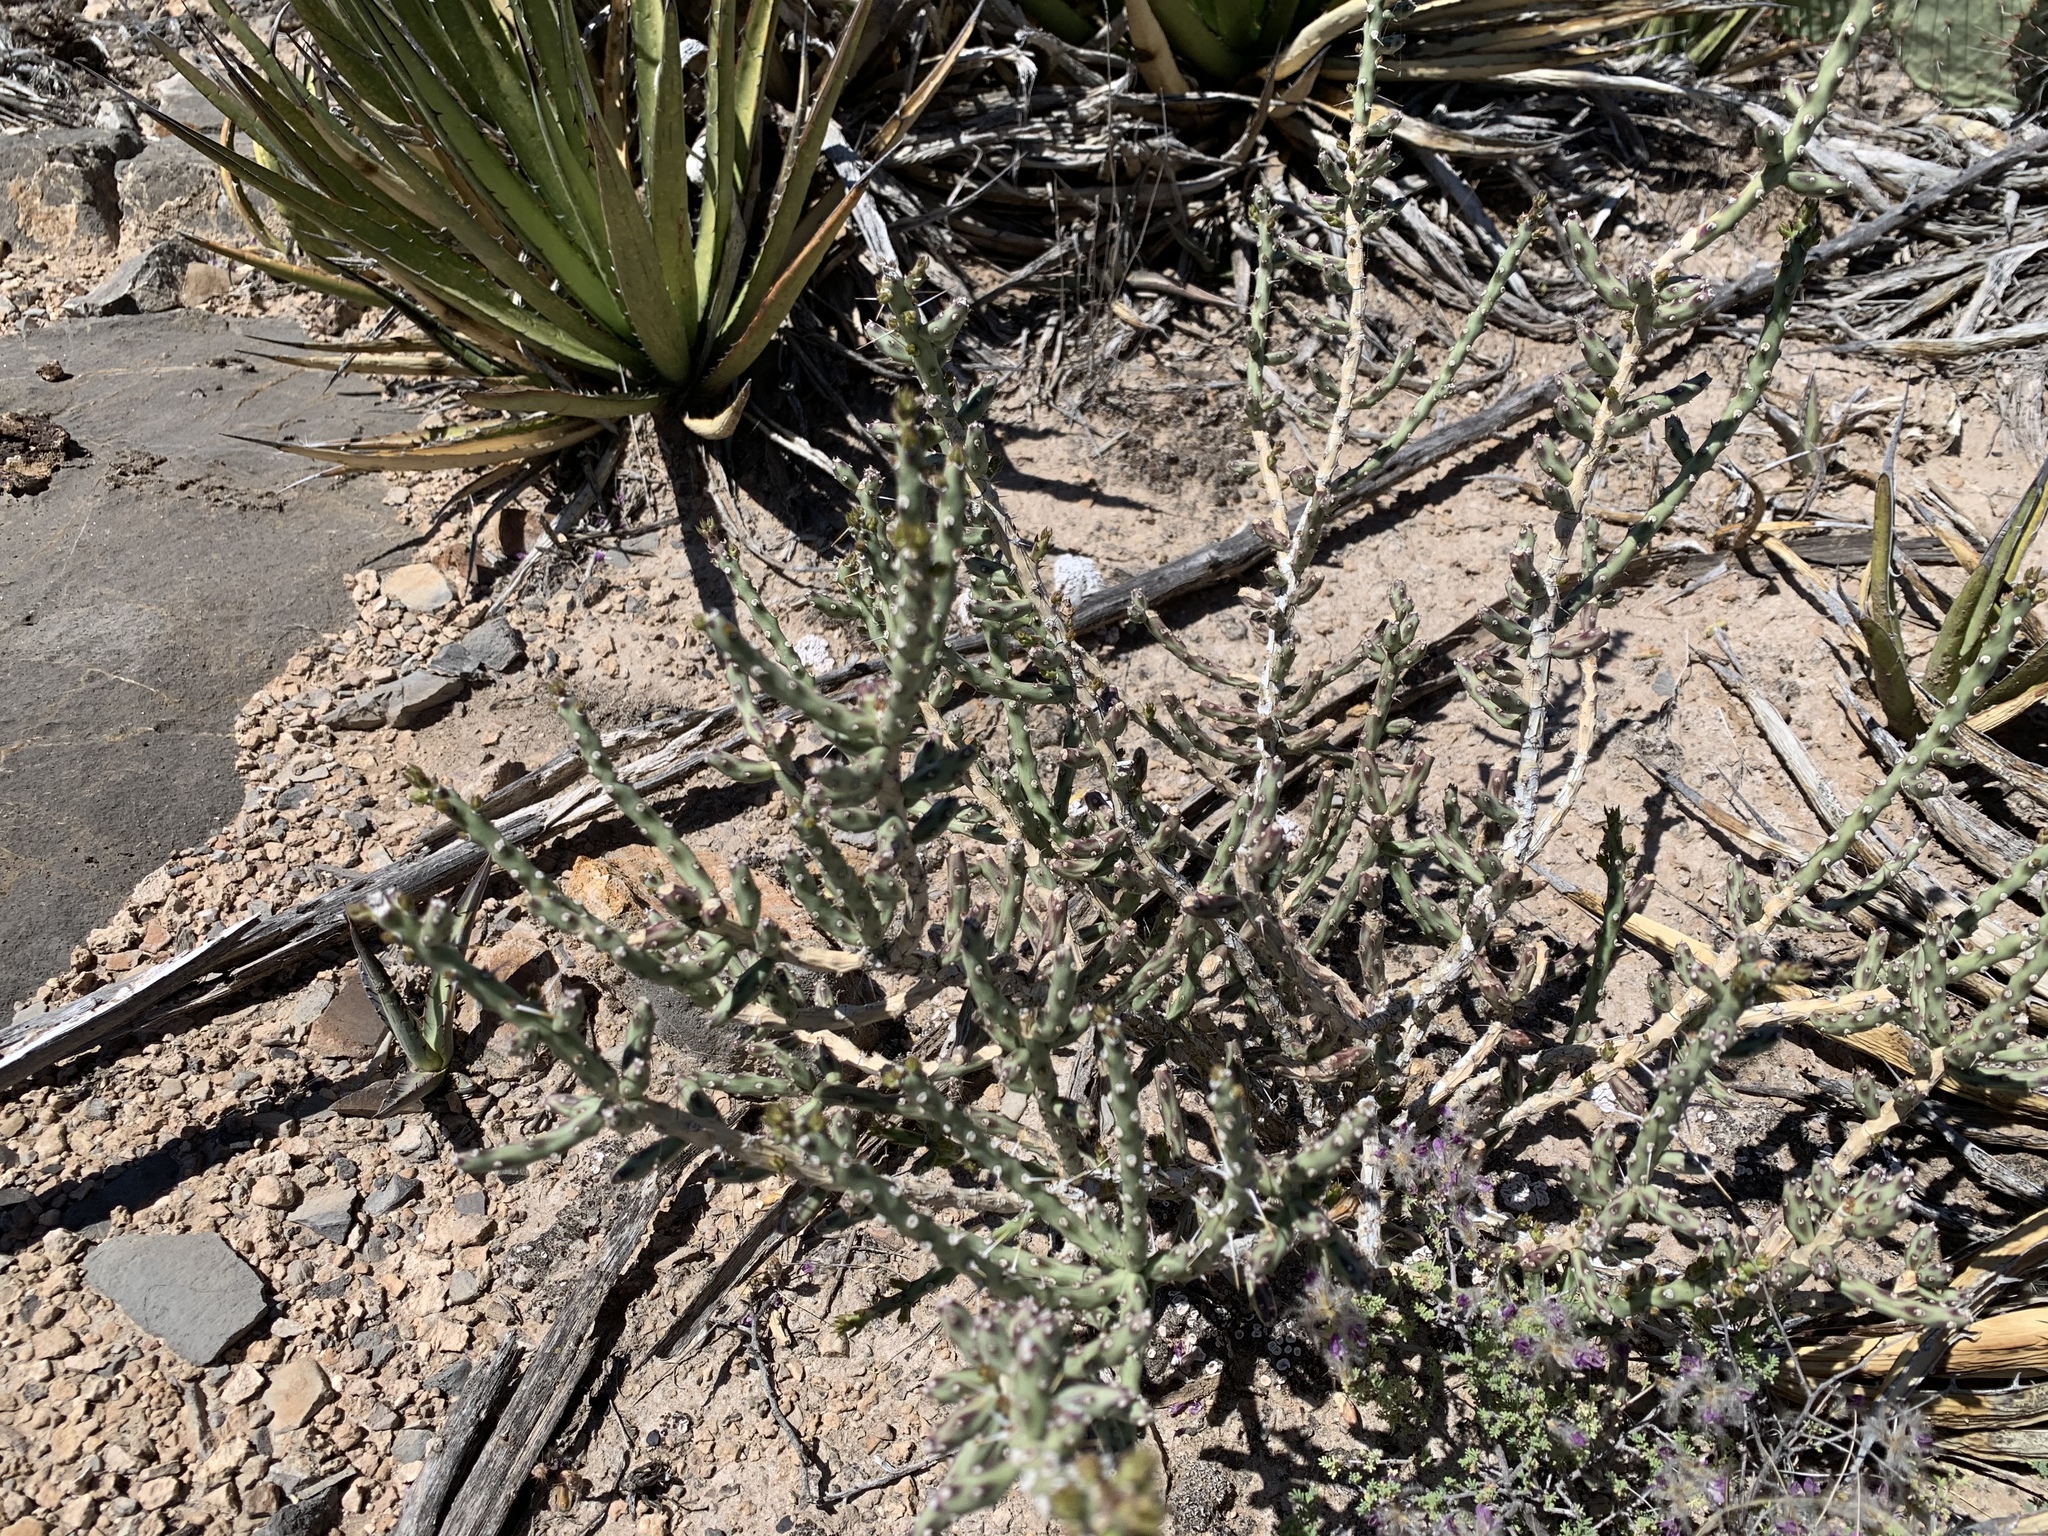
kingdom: Plantae
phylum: Tracheophyta
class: Magnoliopsida
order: Caryophyllales
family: Cactaceae
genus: Cylindropuntia
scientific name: Cylindropuntia leptocaulis
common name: Christmas cactus
